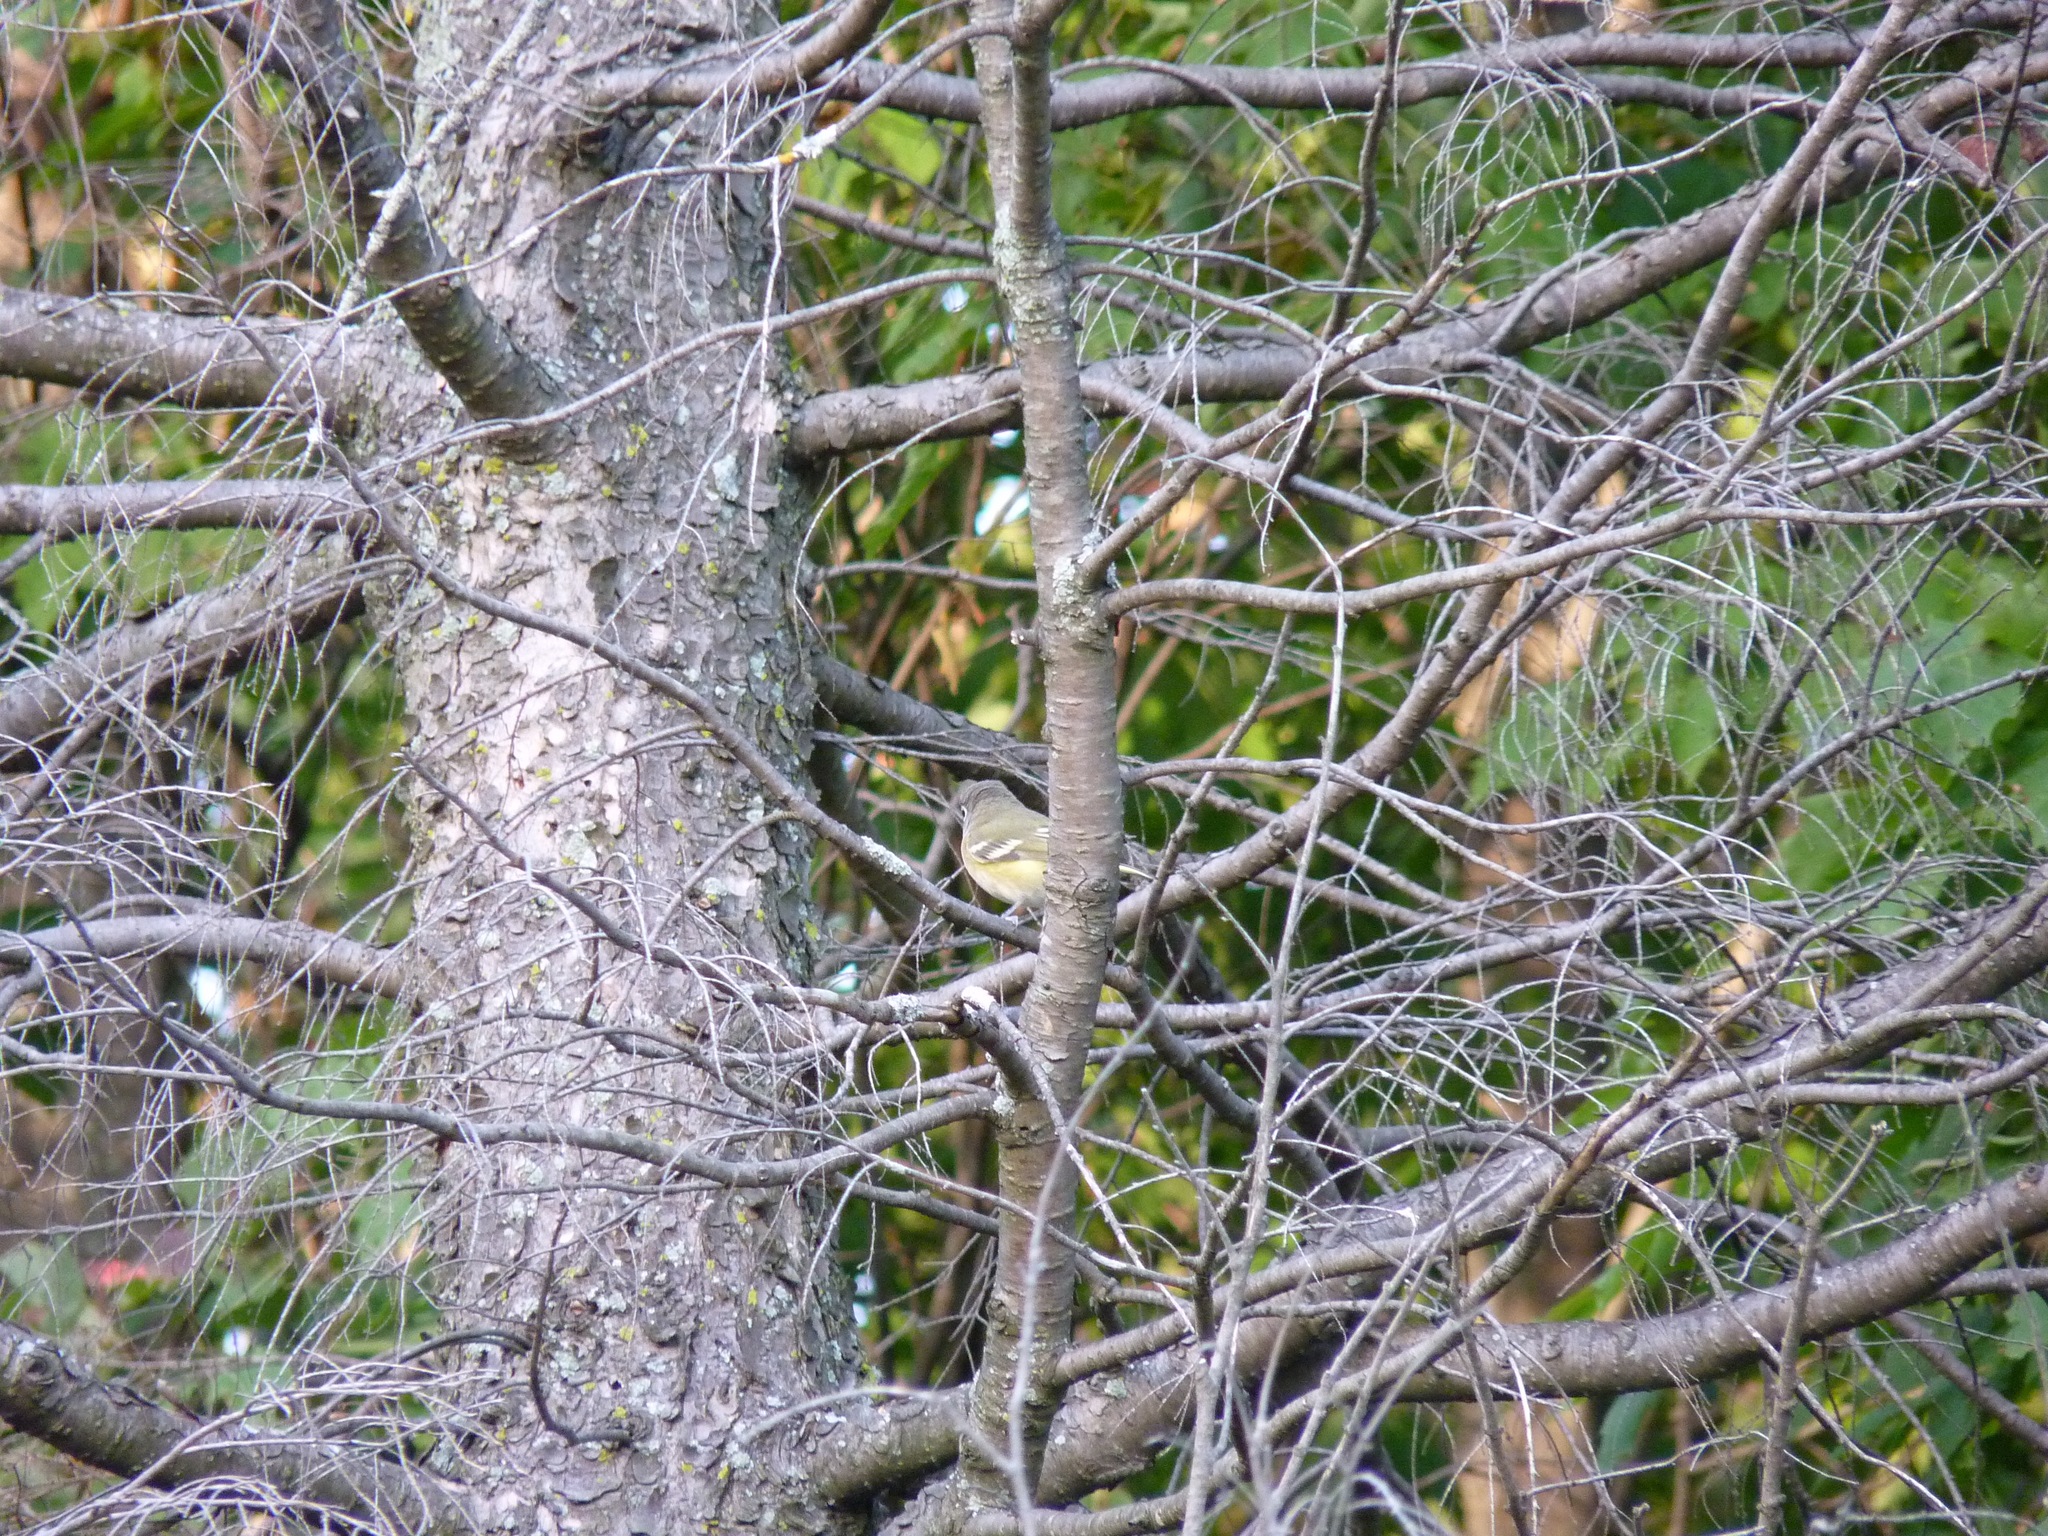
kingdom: Animalia
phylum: Chordata
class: Aves
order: Passeriformes
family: Vireonidae
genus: Vireo
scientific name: Vireo solitarius
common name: Blue-headed vireo
